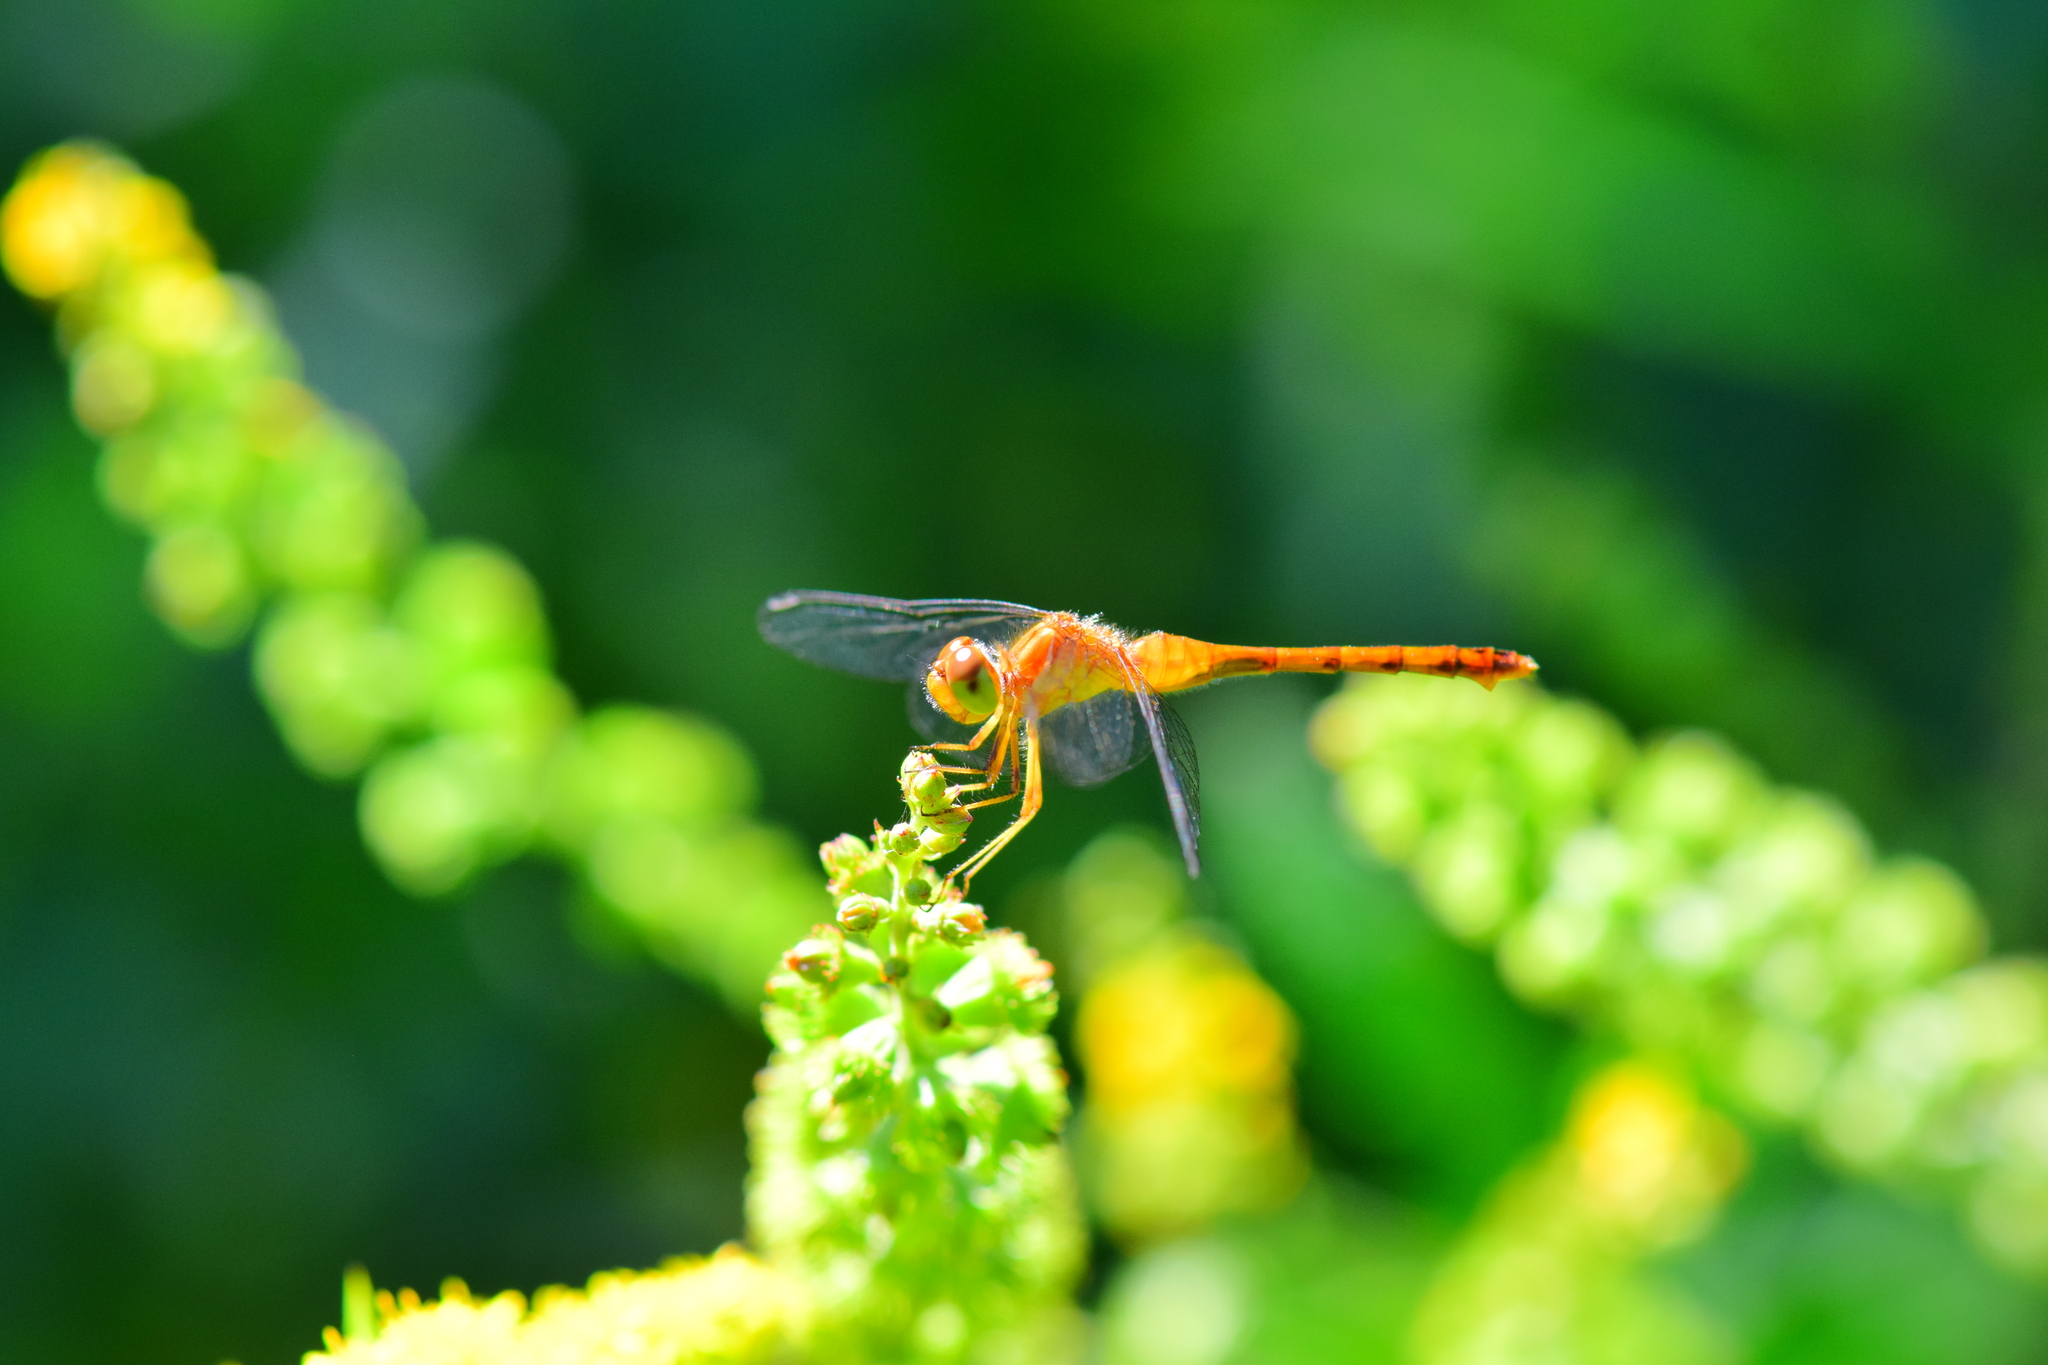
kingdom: Animalia
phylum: Arthropoda
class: Insecta
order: Odonata
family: Libellulidae
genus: Sympetrum
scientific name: Sympetrum vicinum
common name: Autumn meadowhawk
